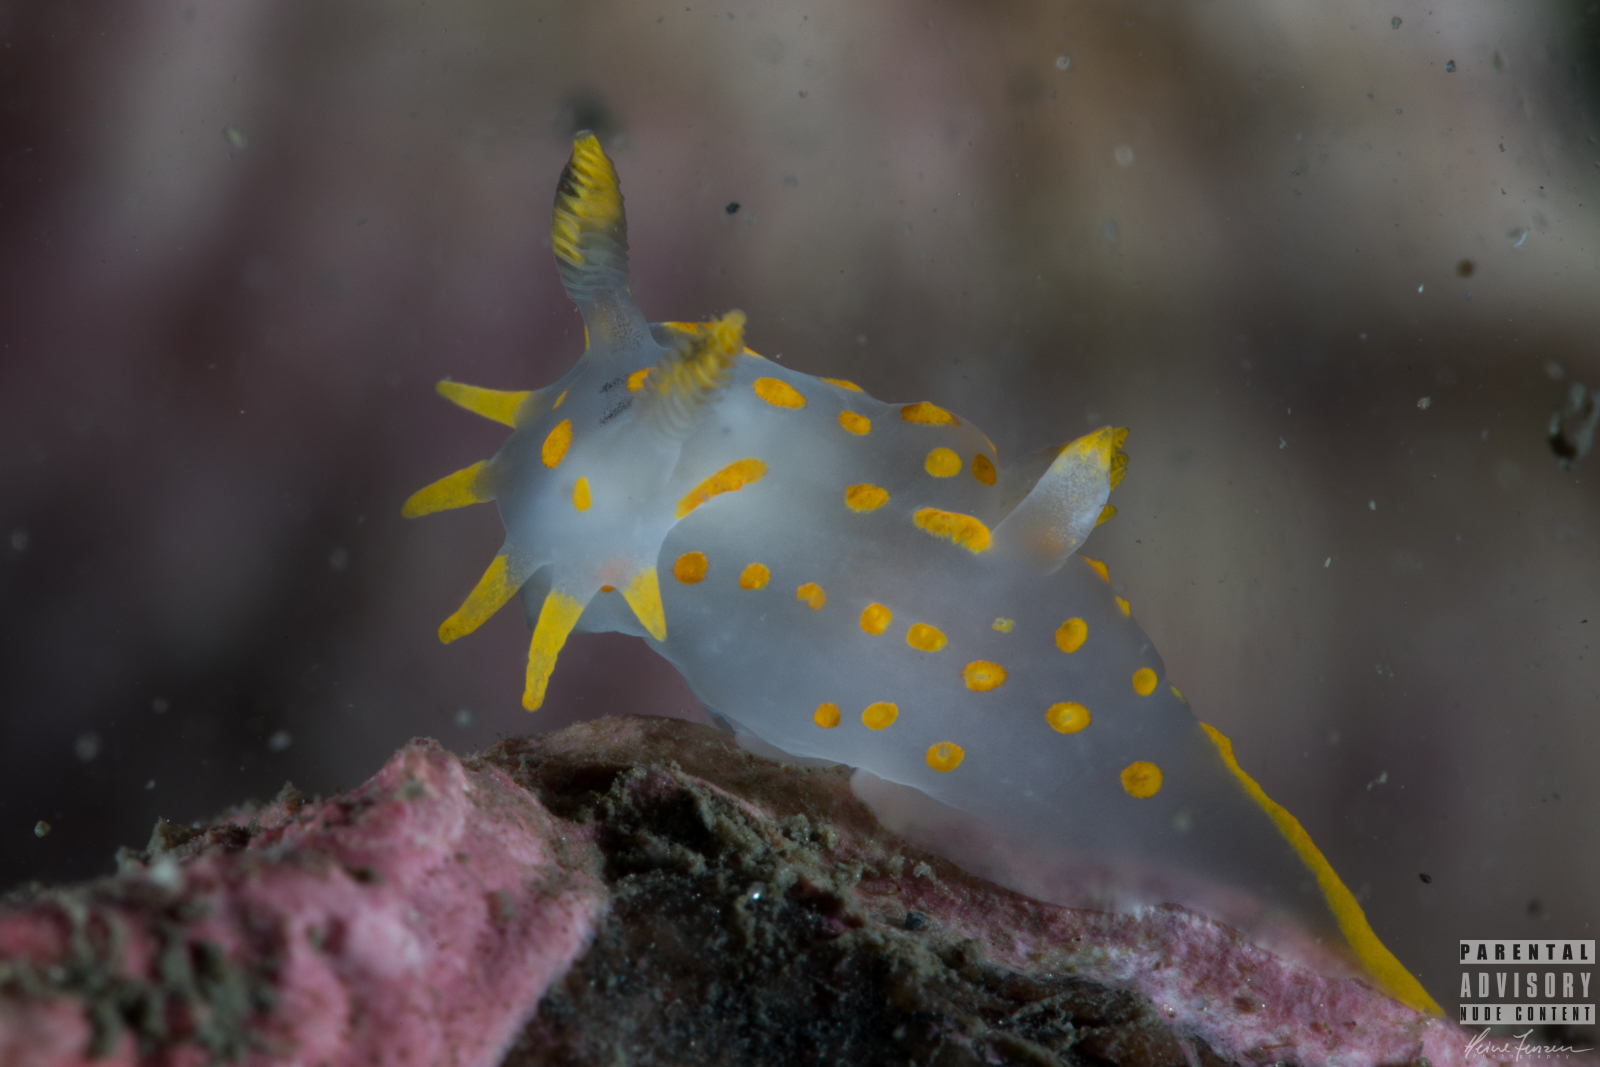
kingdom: Animalia
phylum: Mollusca
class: Gastropoda
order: Nudibranchia
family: Polyceridae
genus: Polycera
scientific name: Polycera quadrilineata
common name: Four-striped polycera
